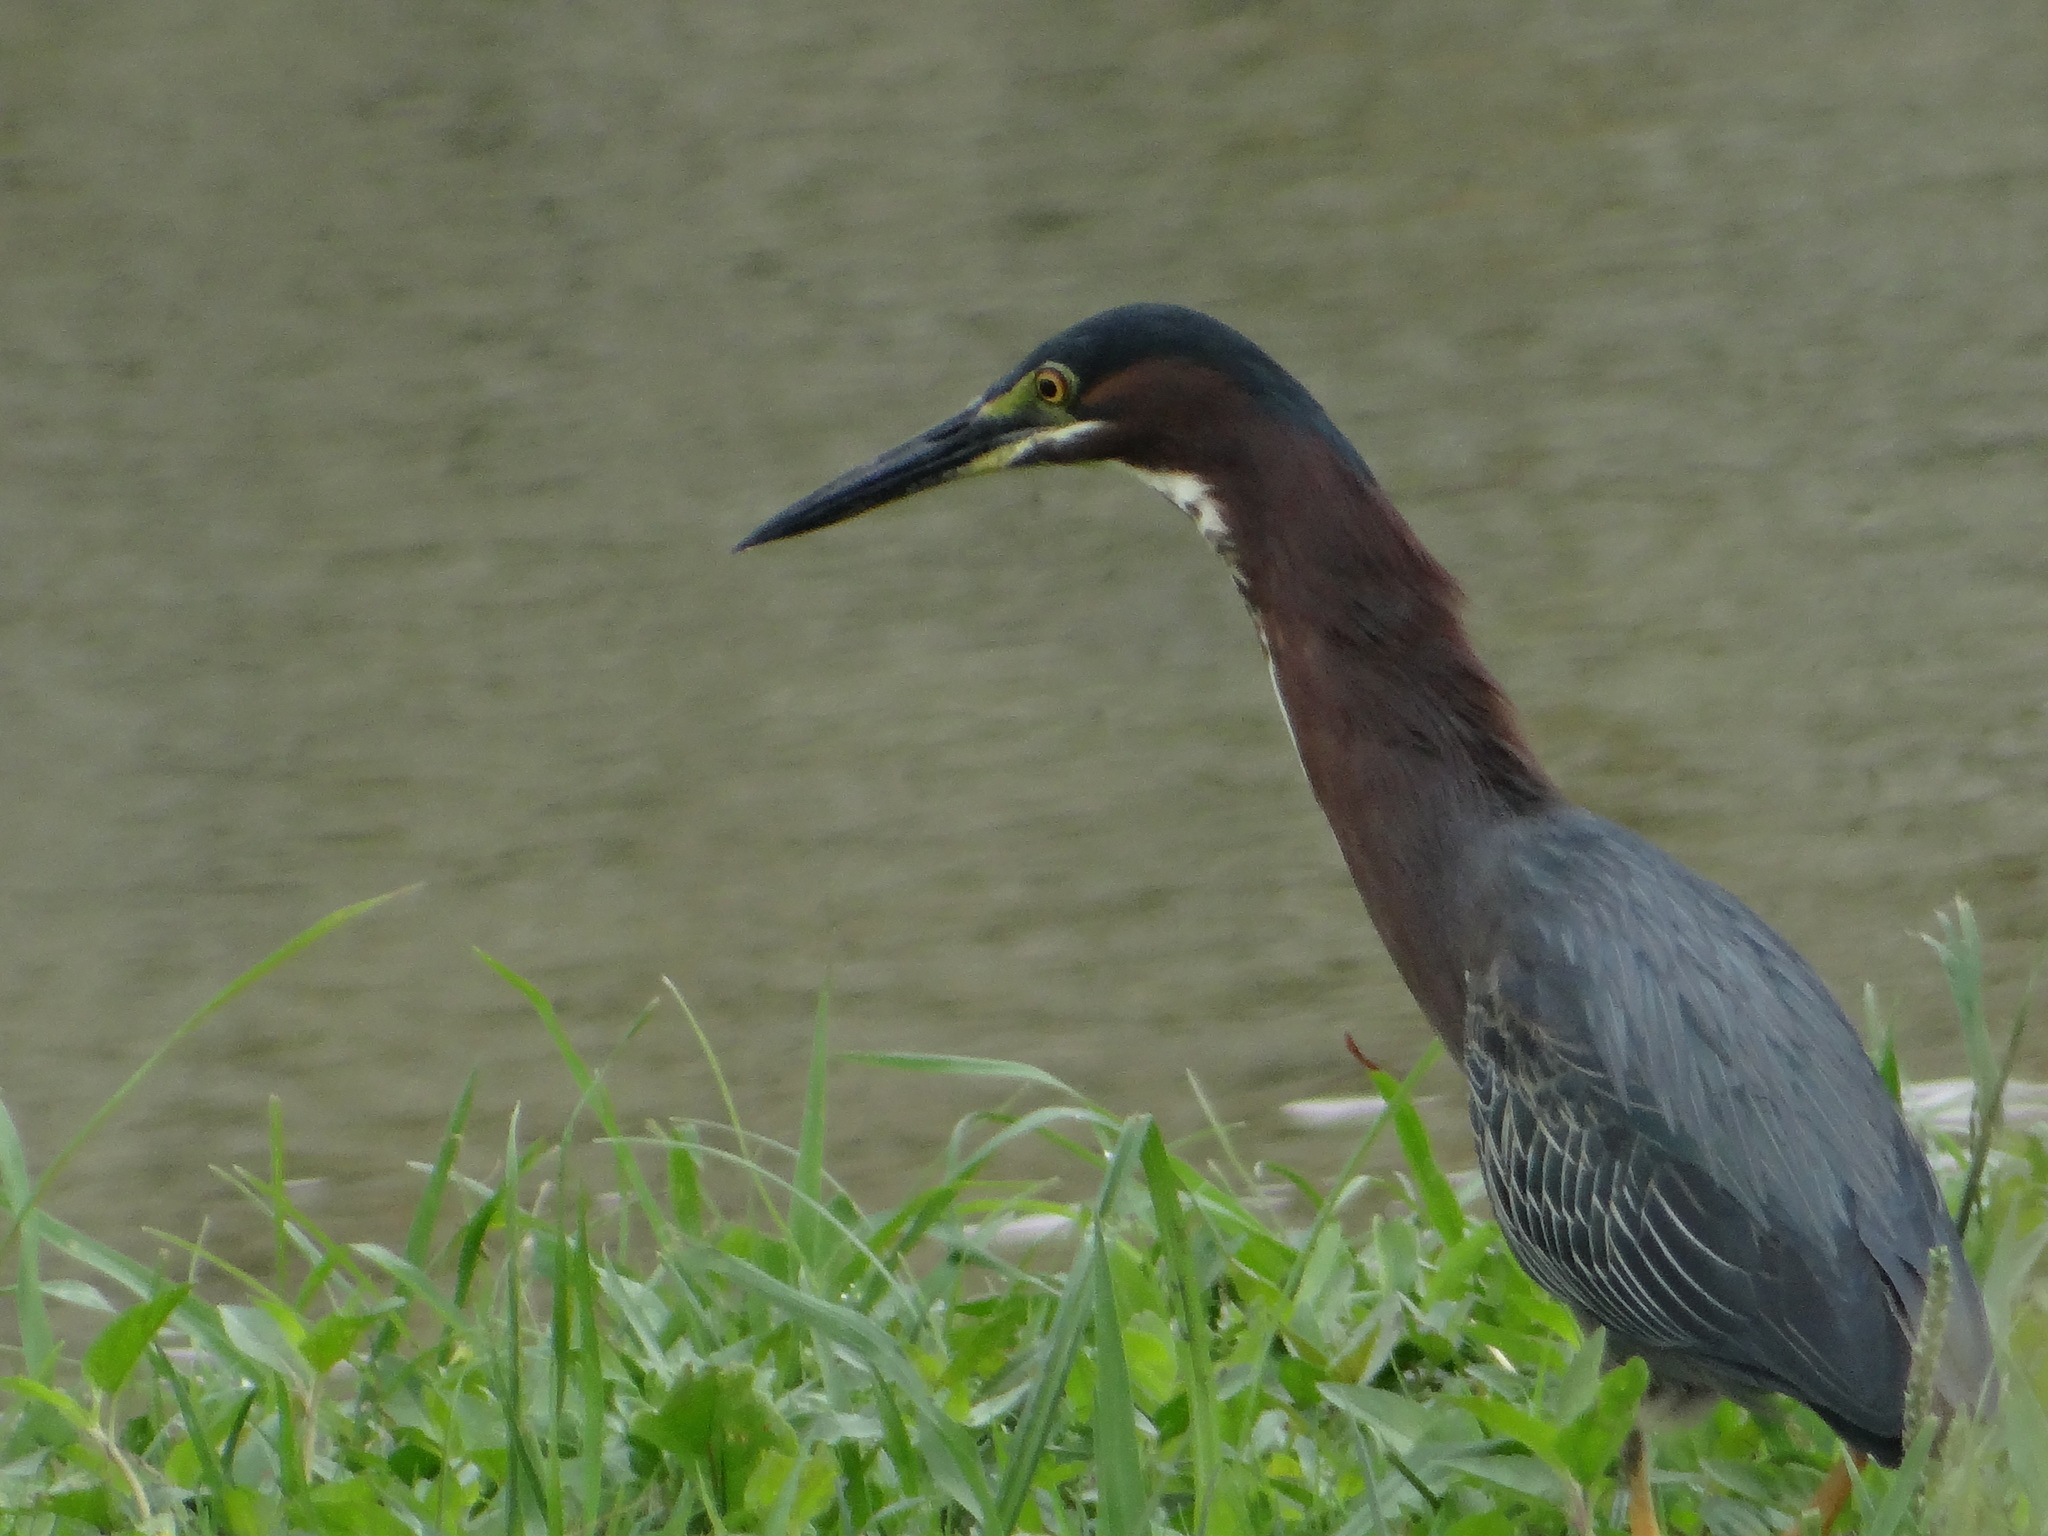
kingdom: Animalia
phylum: Chordata
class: Aves
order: Pelecaniformes
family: Ardeidae
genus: Butorides
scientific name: Butorides virescens
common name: Green heron
